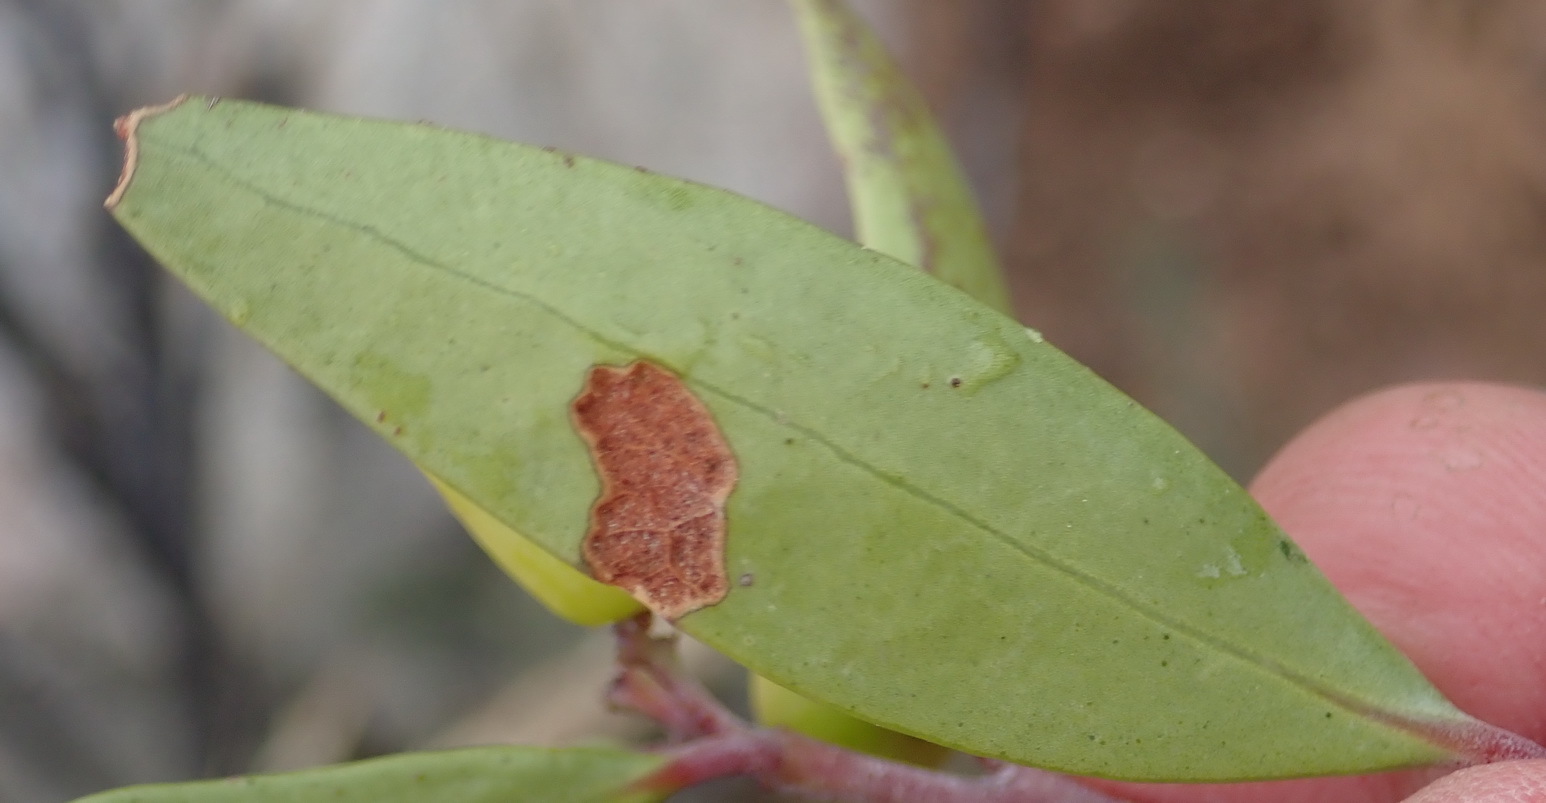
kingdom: Plantae
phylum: Tracheophyta
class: Magnoliopsida
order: Celastrales
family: Celastraceae
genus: Gymnosporia
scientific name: Gymnosporia laurina
